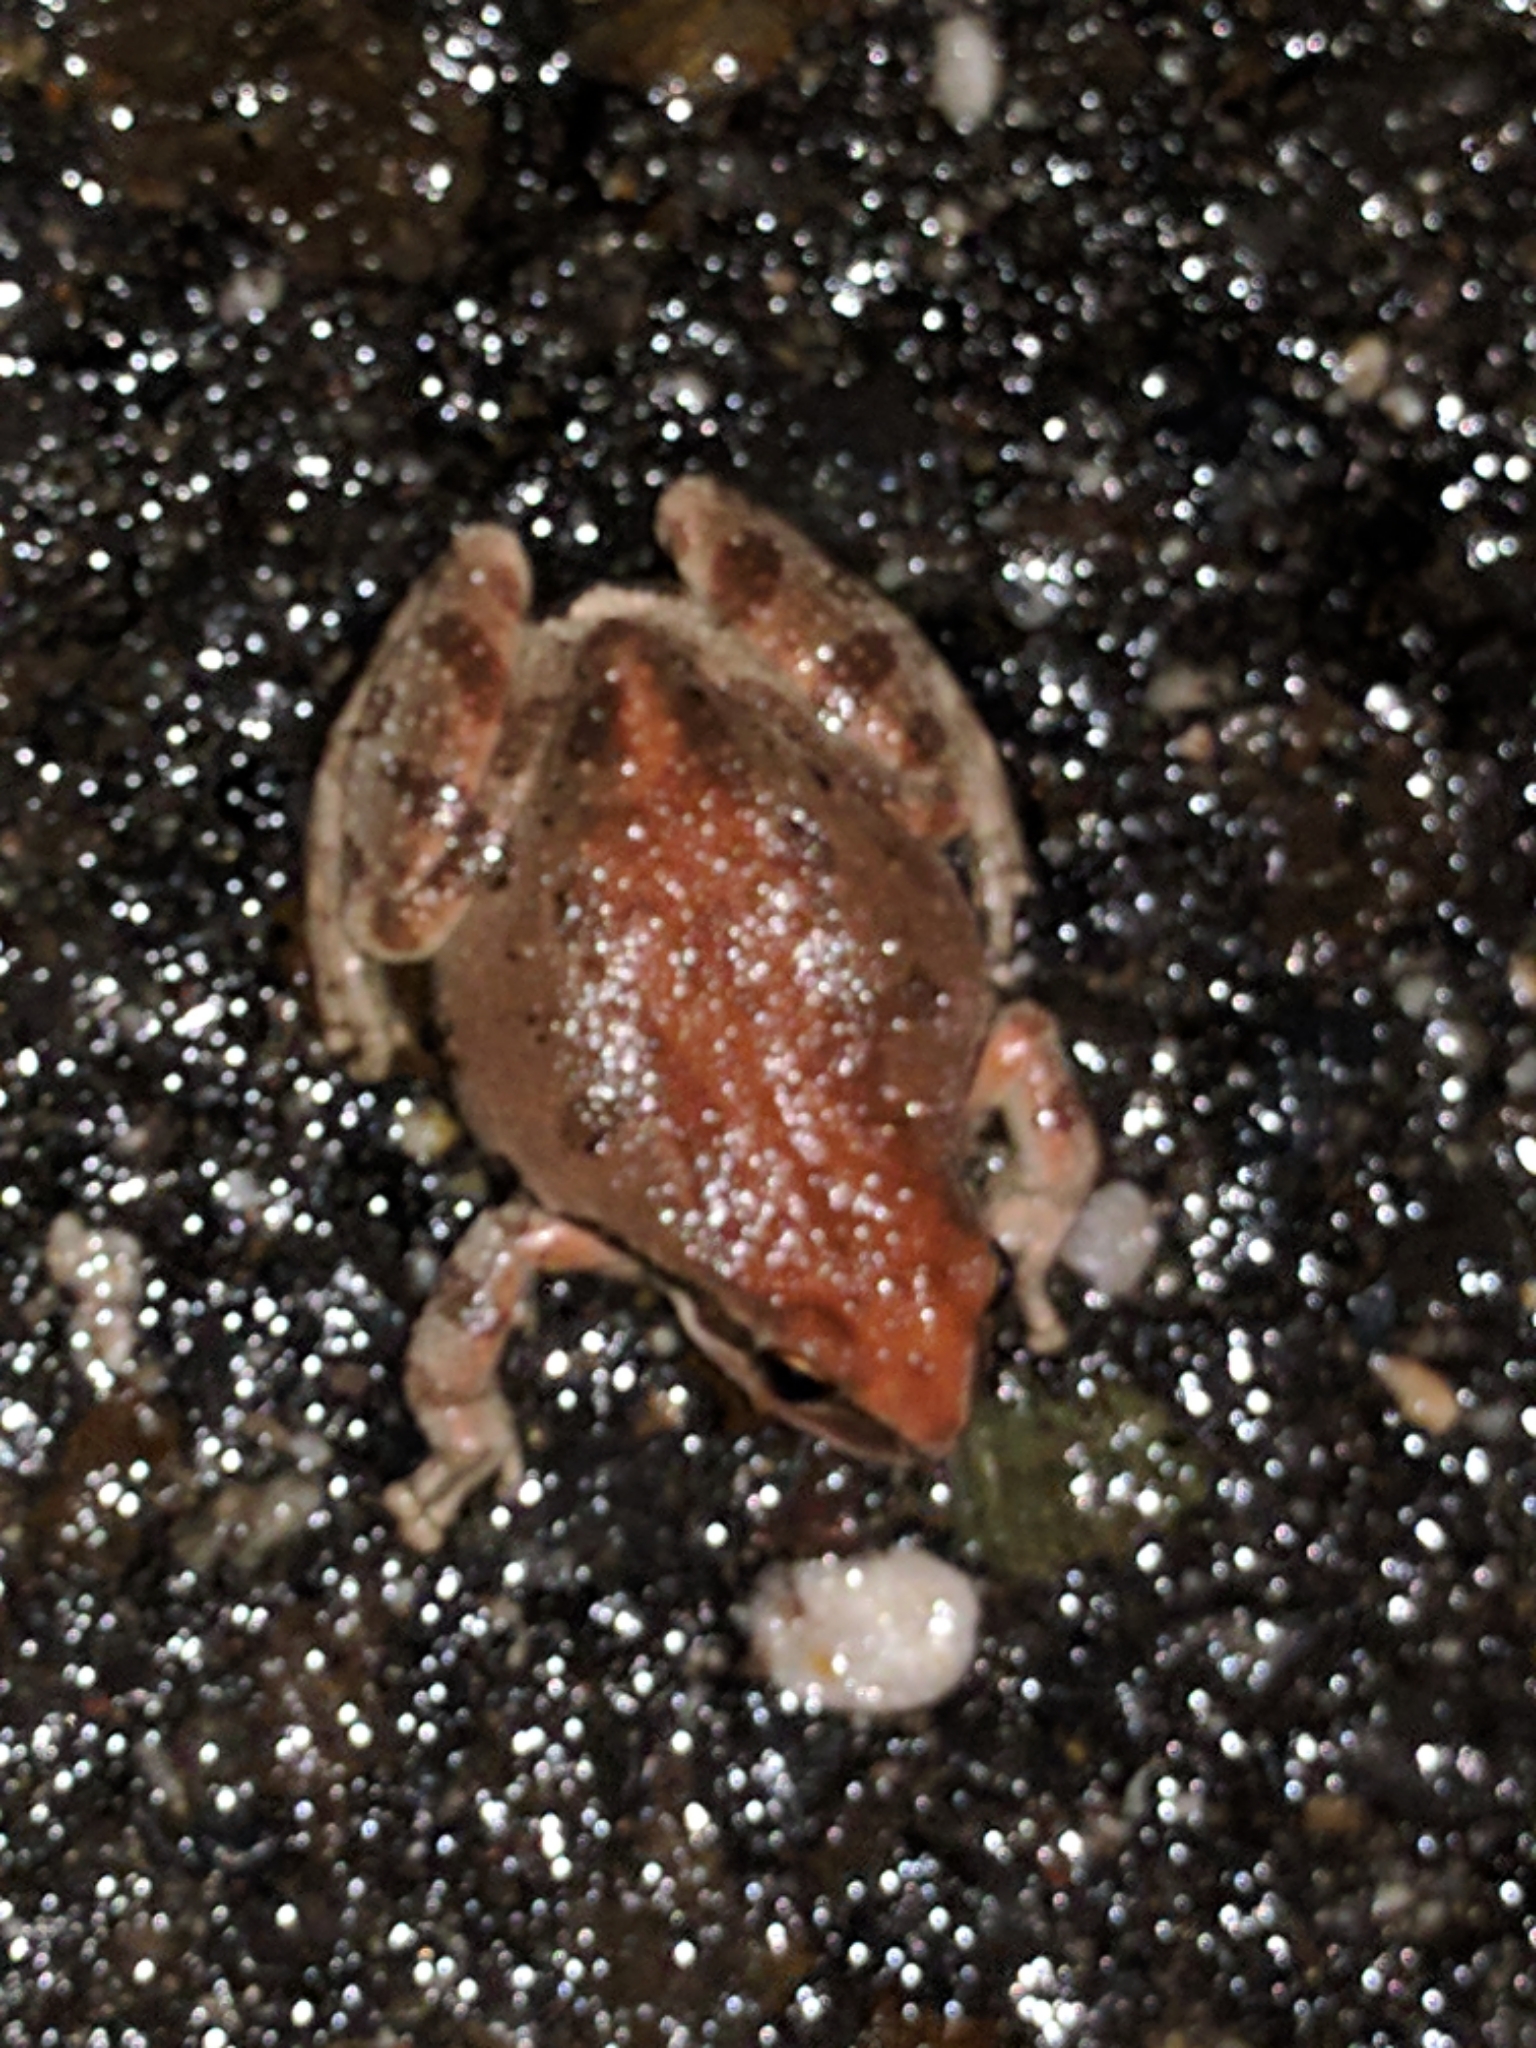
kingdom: Animalia
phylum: Chordata
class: Amphibia
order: Anura
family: Hylidae
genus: Pseudacris
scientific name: Pseudacris regilla
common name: Pacific chorus frog
